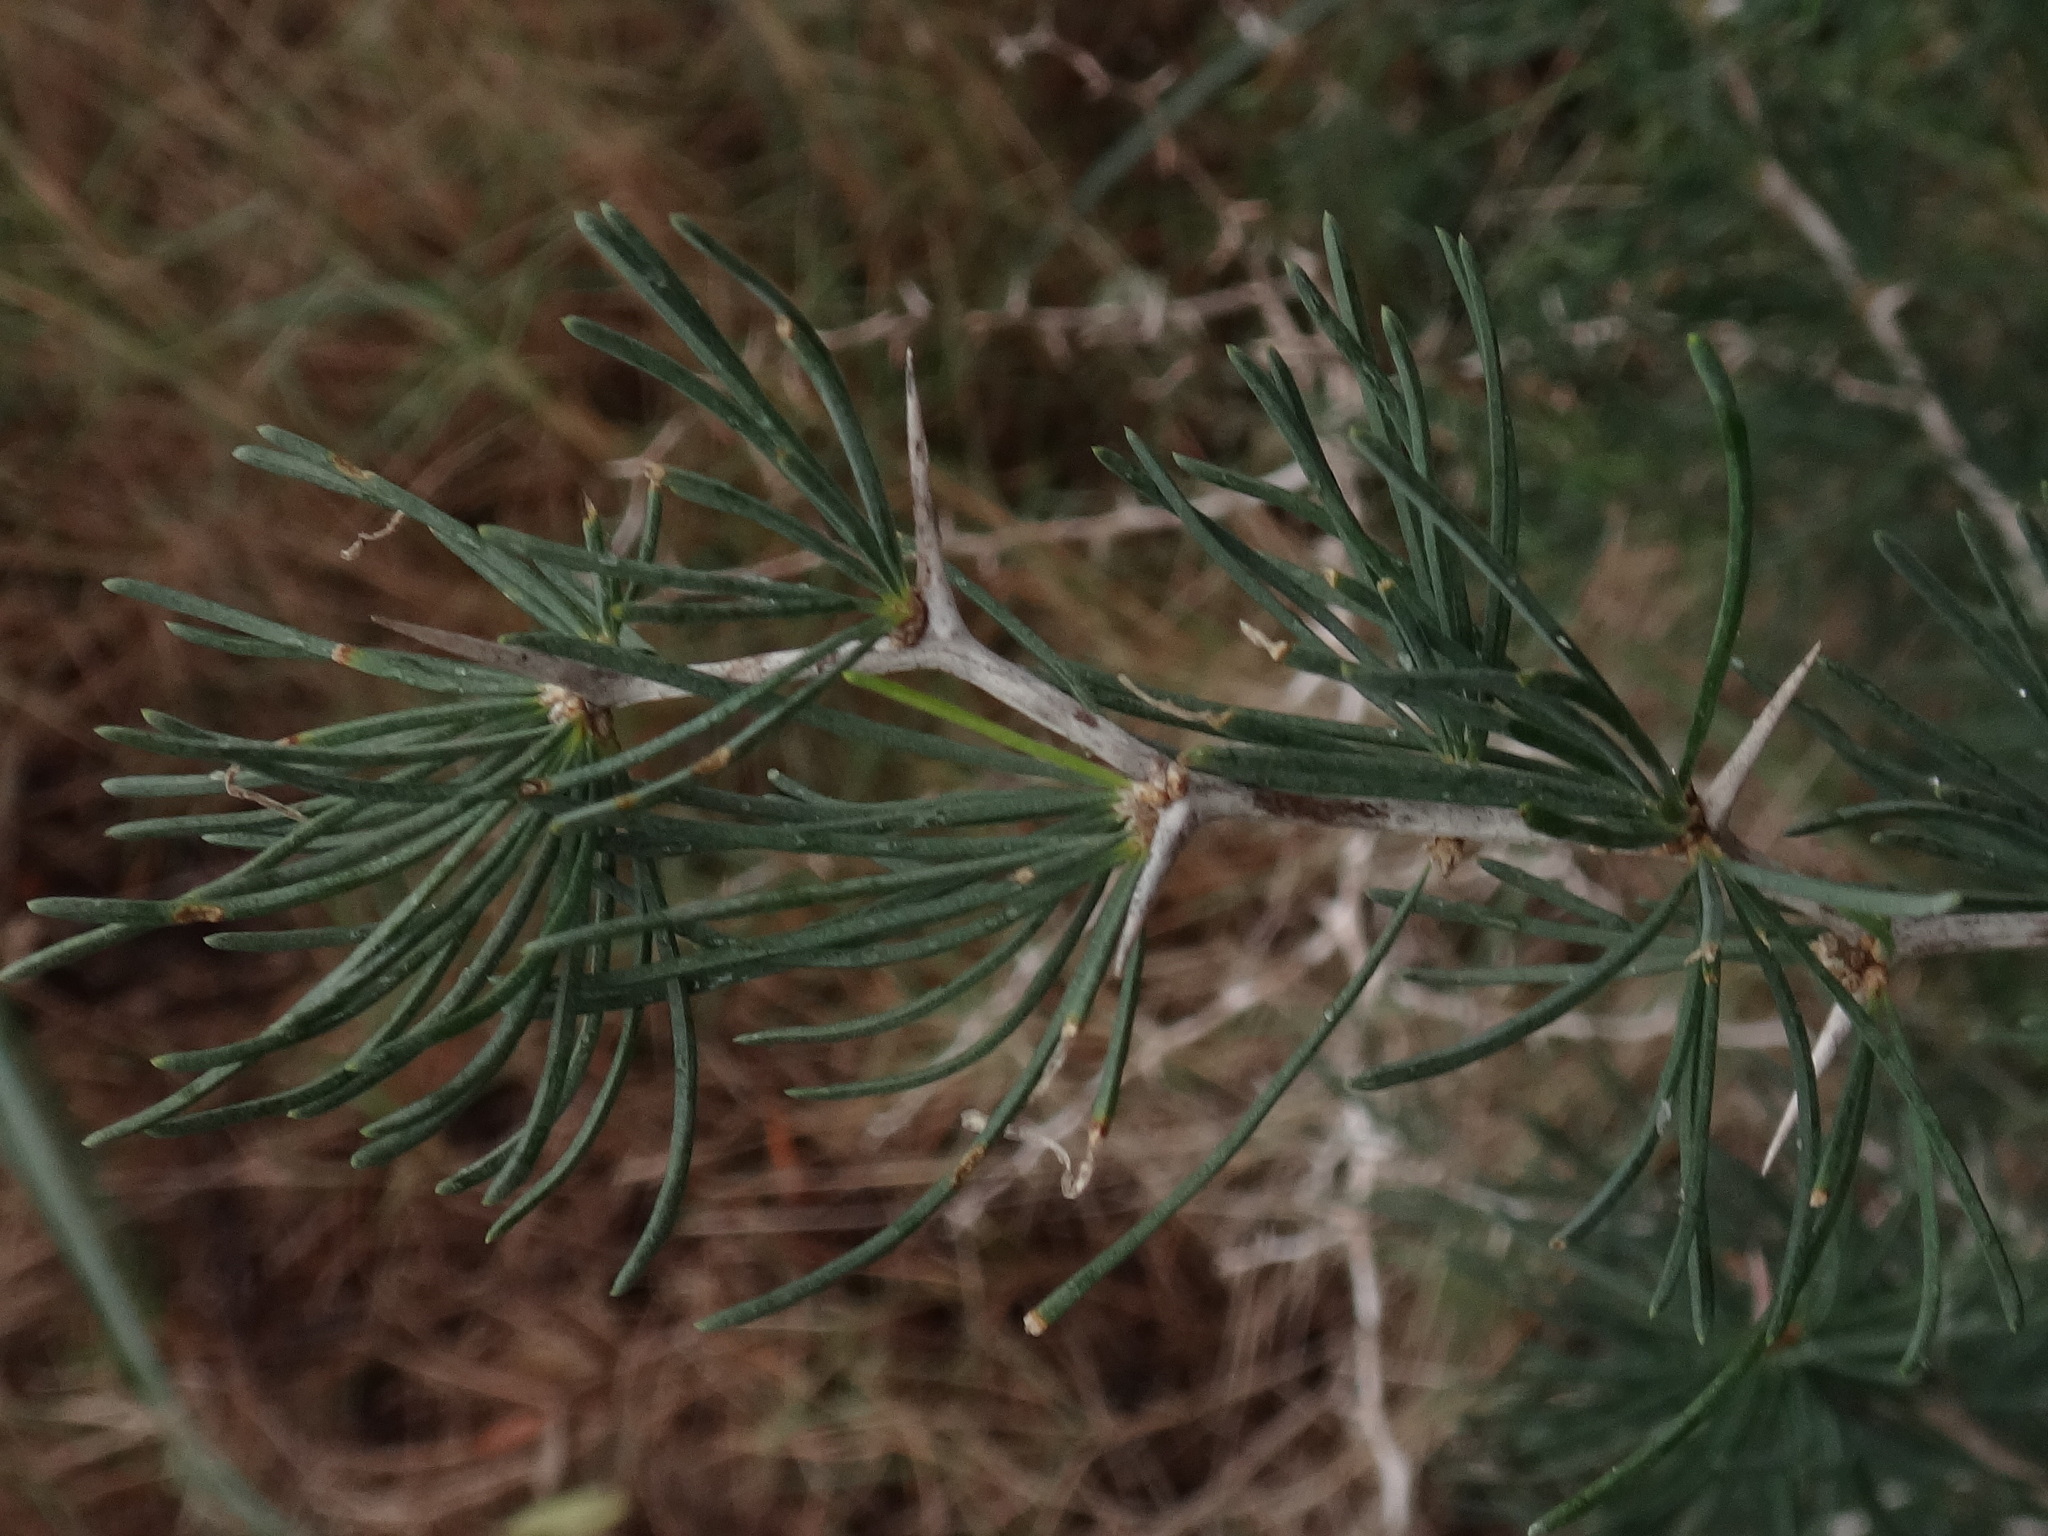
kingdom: Plantae
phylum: Tracheophyta
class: Liliopsida
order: Asparagales
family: Asparagaceae
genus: Asparagus
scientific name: Asparagus albus
